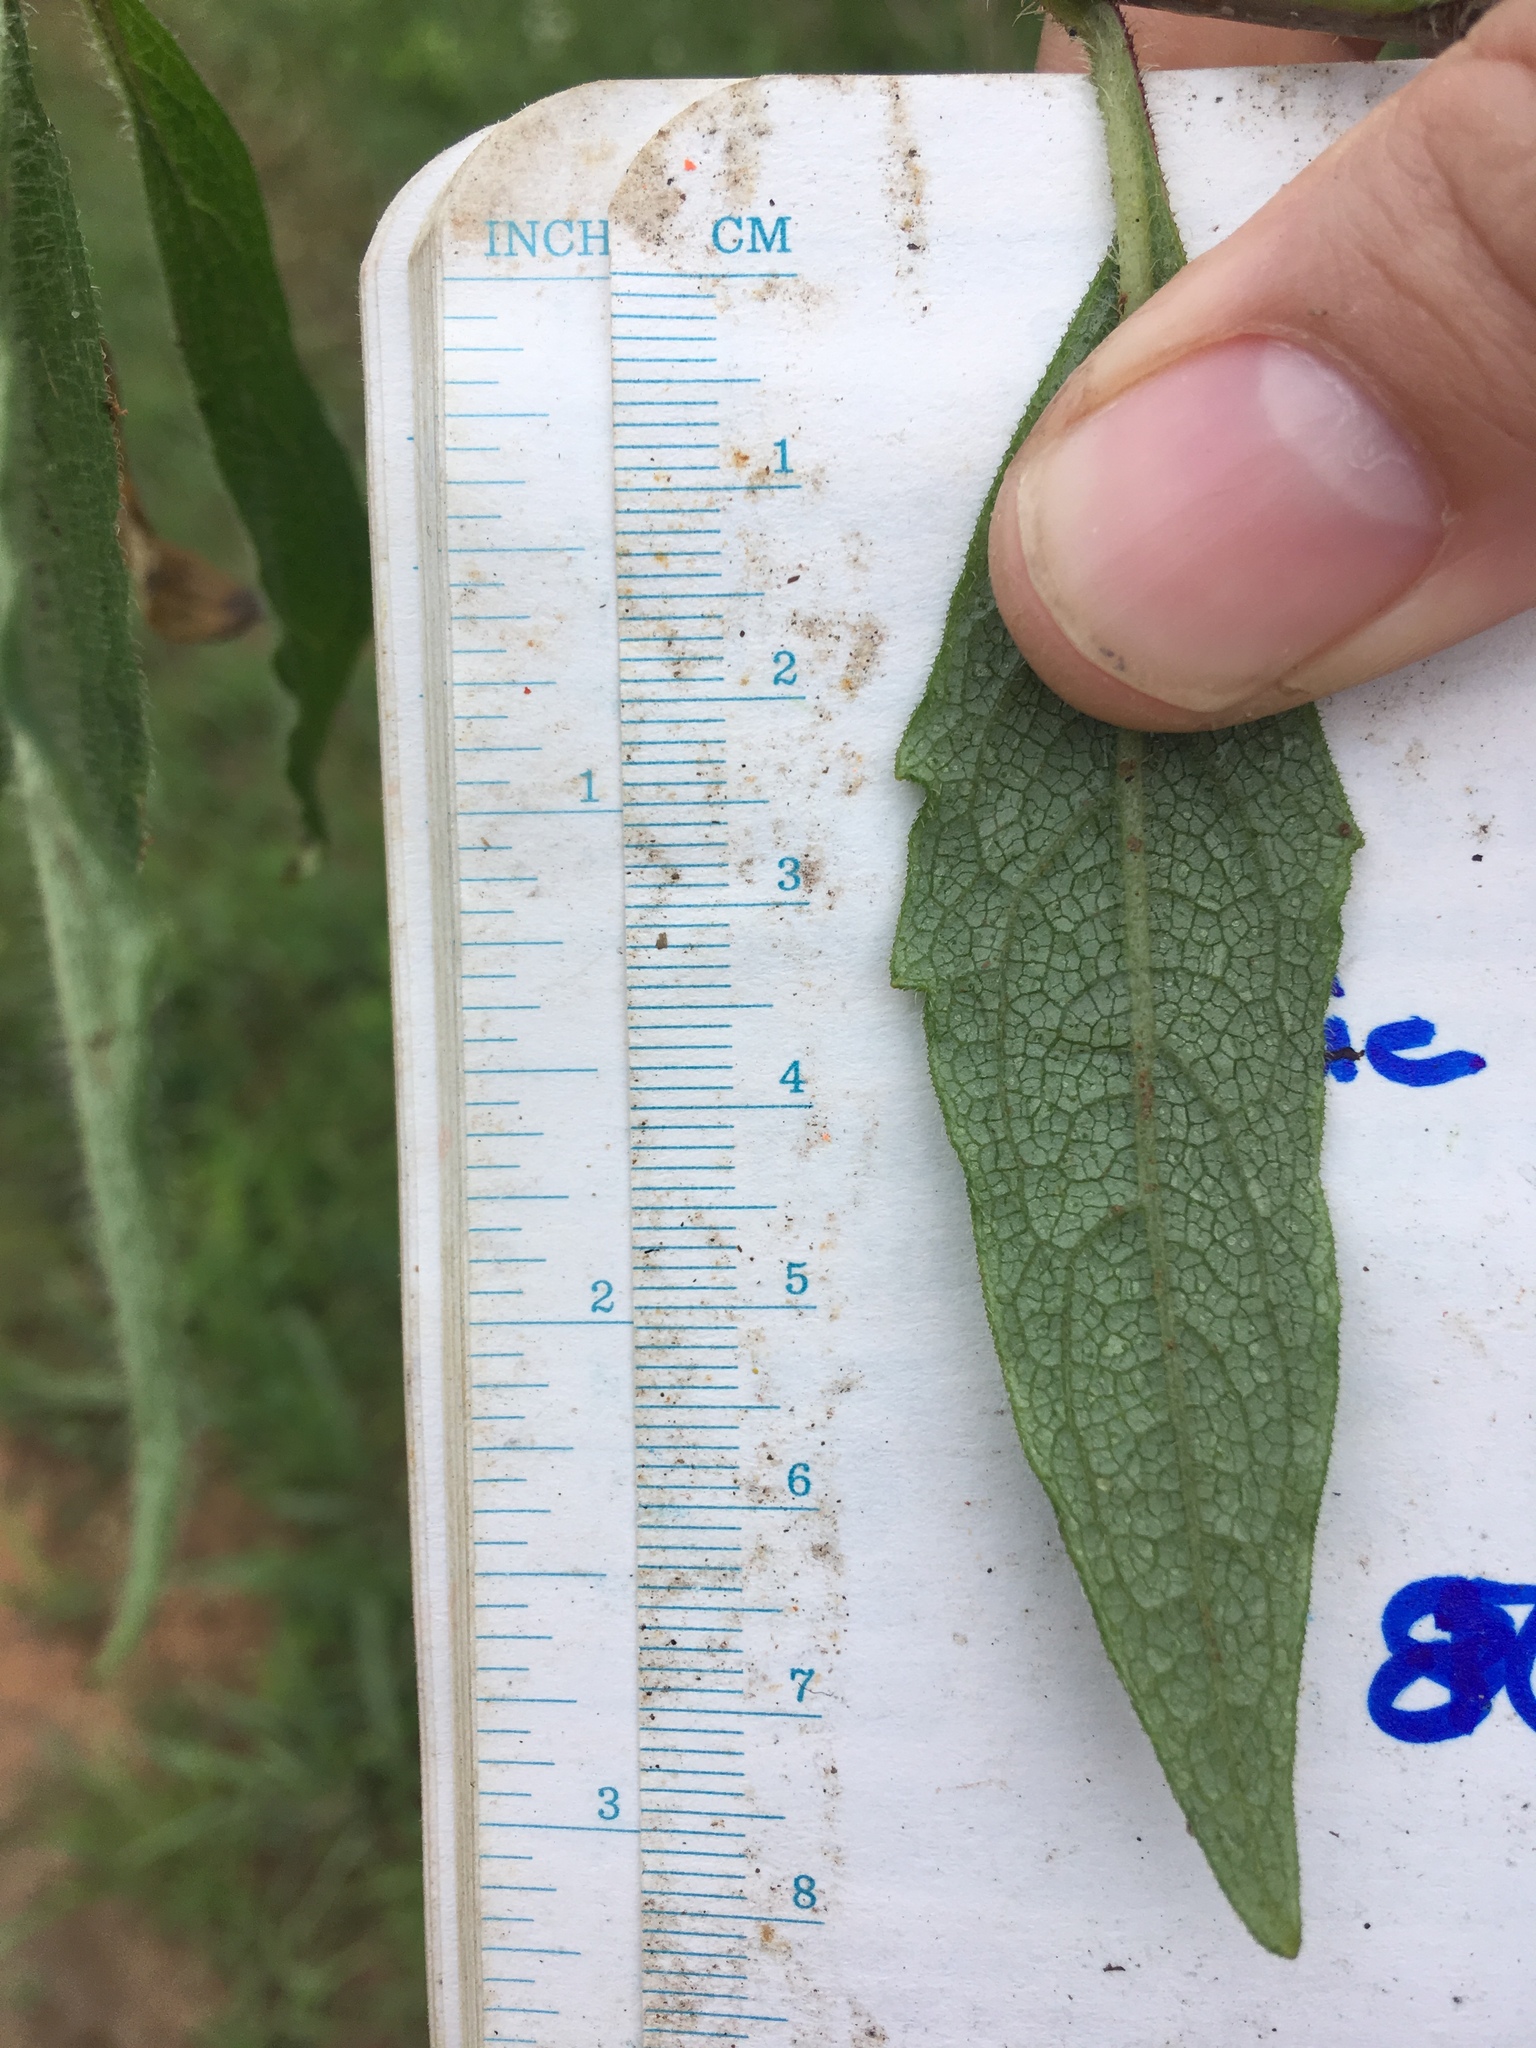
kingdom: Plantae
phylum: Tracheophyta
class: Magnoliopsida
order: Asterales
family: Asteraceae
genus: Silphium
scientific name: Silphium asteriscus
